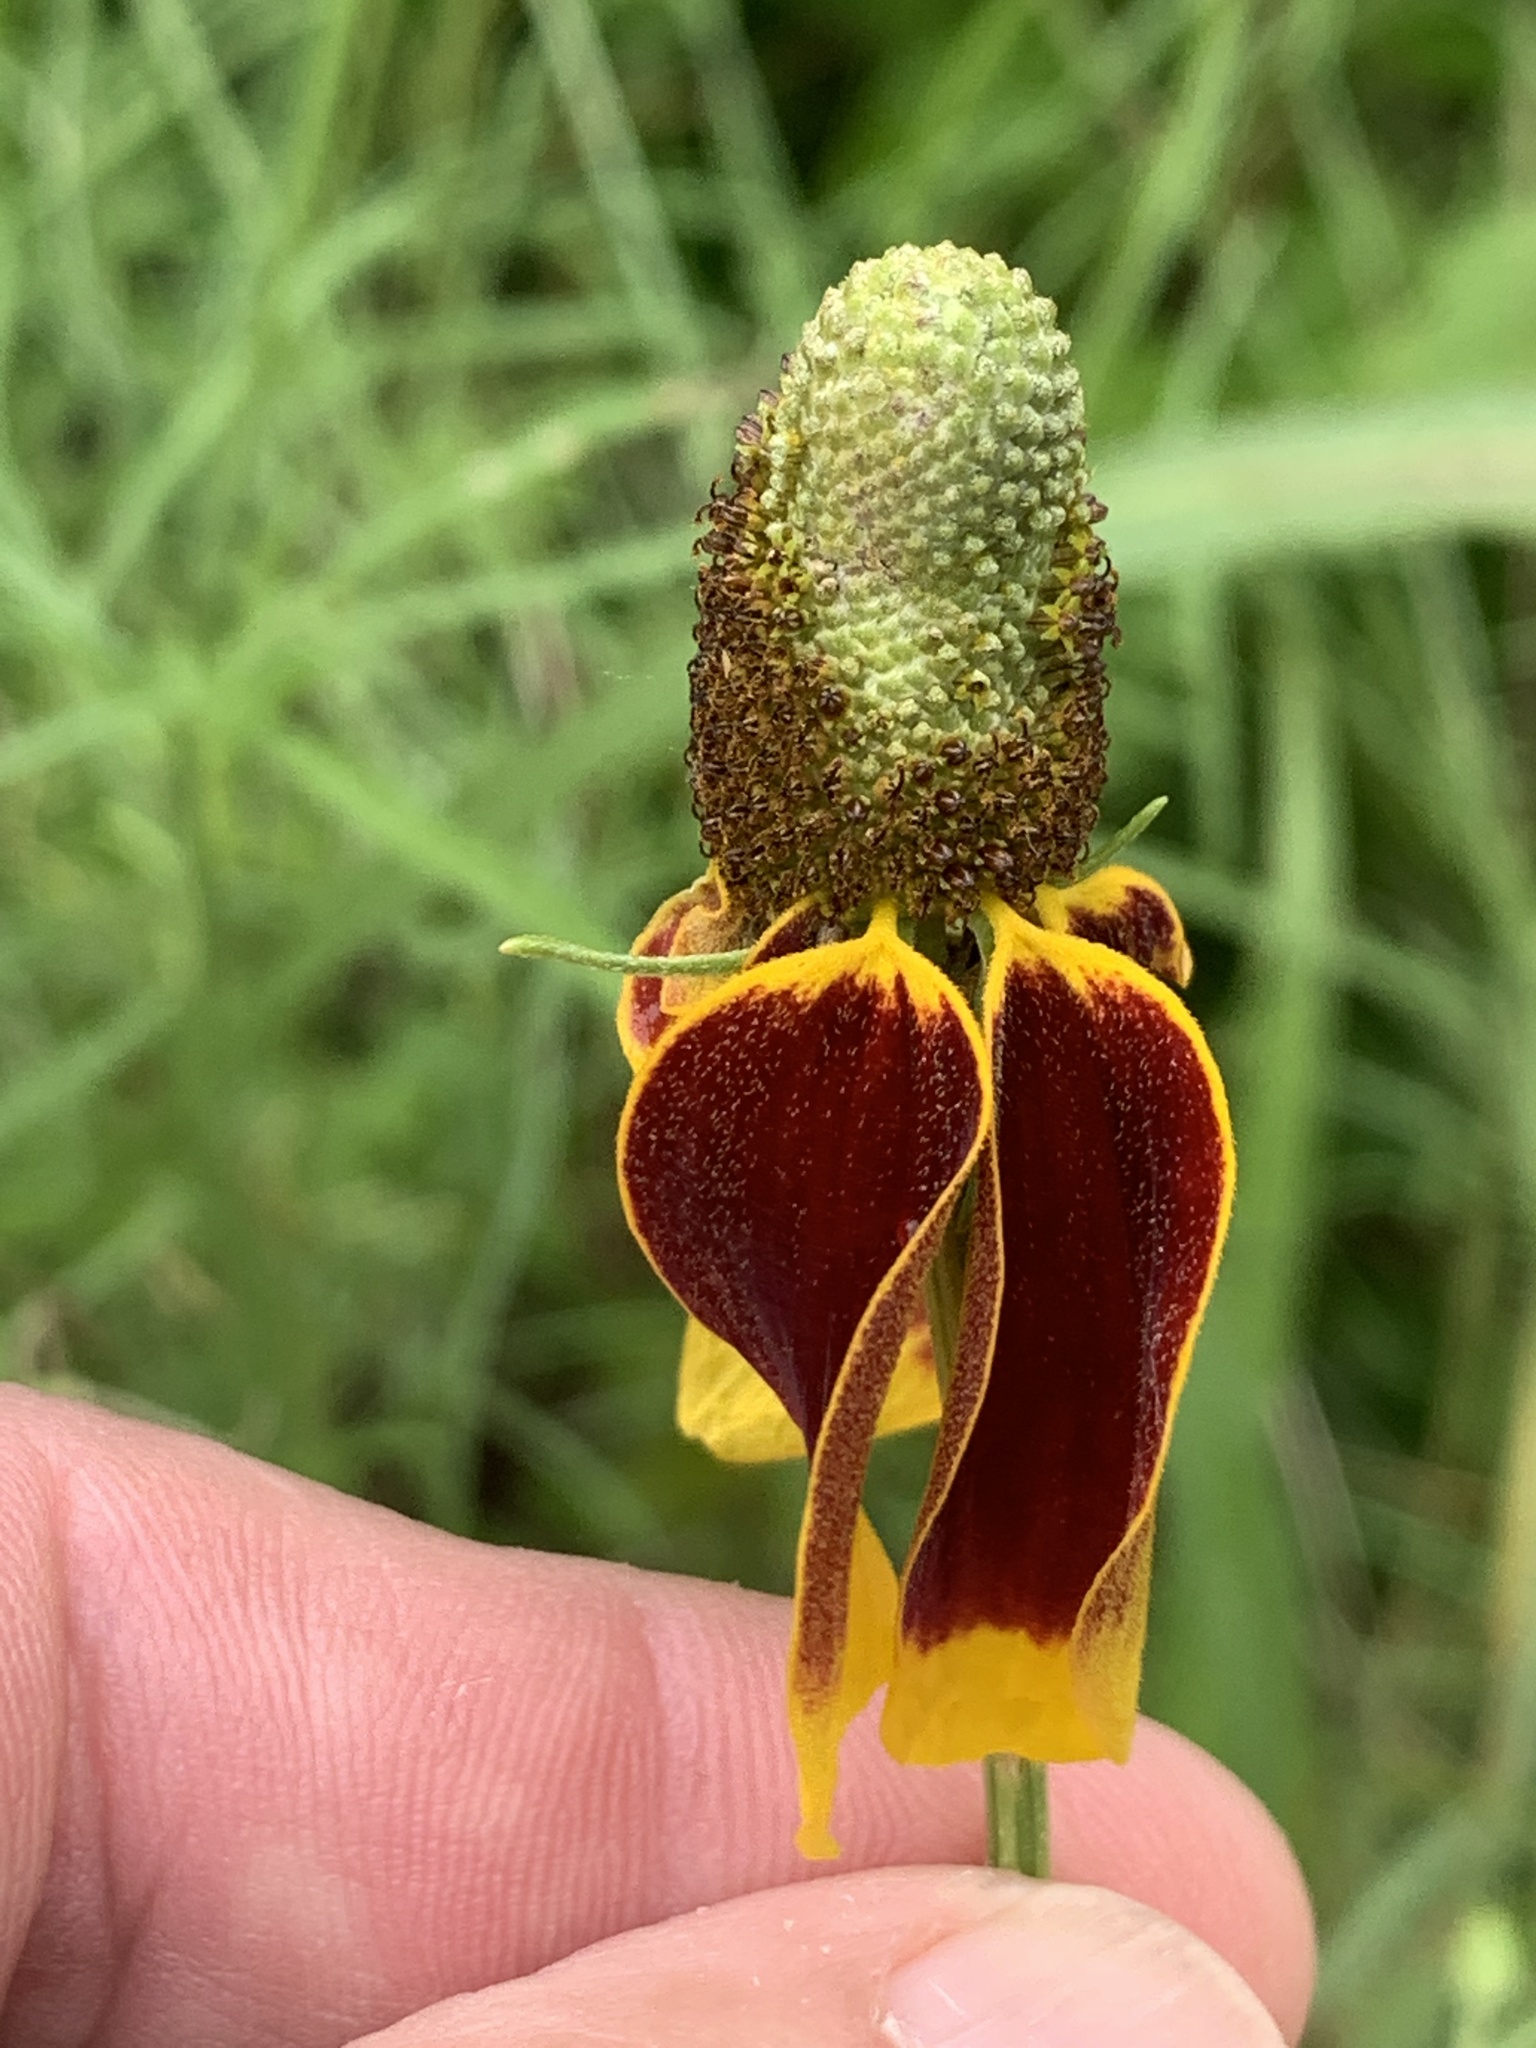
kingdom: Plantae
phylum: Tracheophyta
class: Magnoliopsida
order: Asterales
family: Asteraceae
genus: Ratibida
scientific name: Ratibida columnifera
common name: Prairie coneflower
